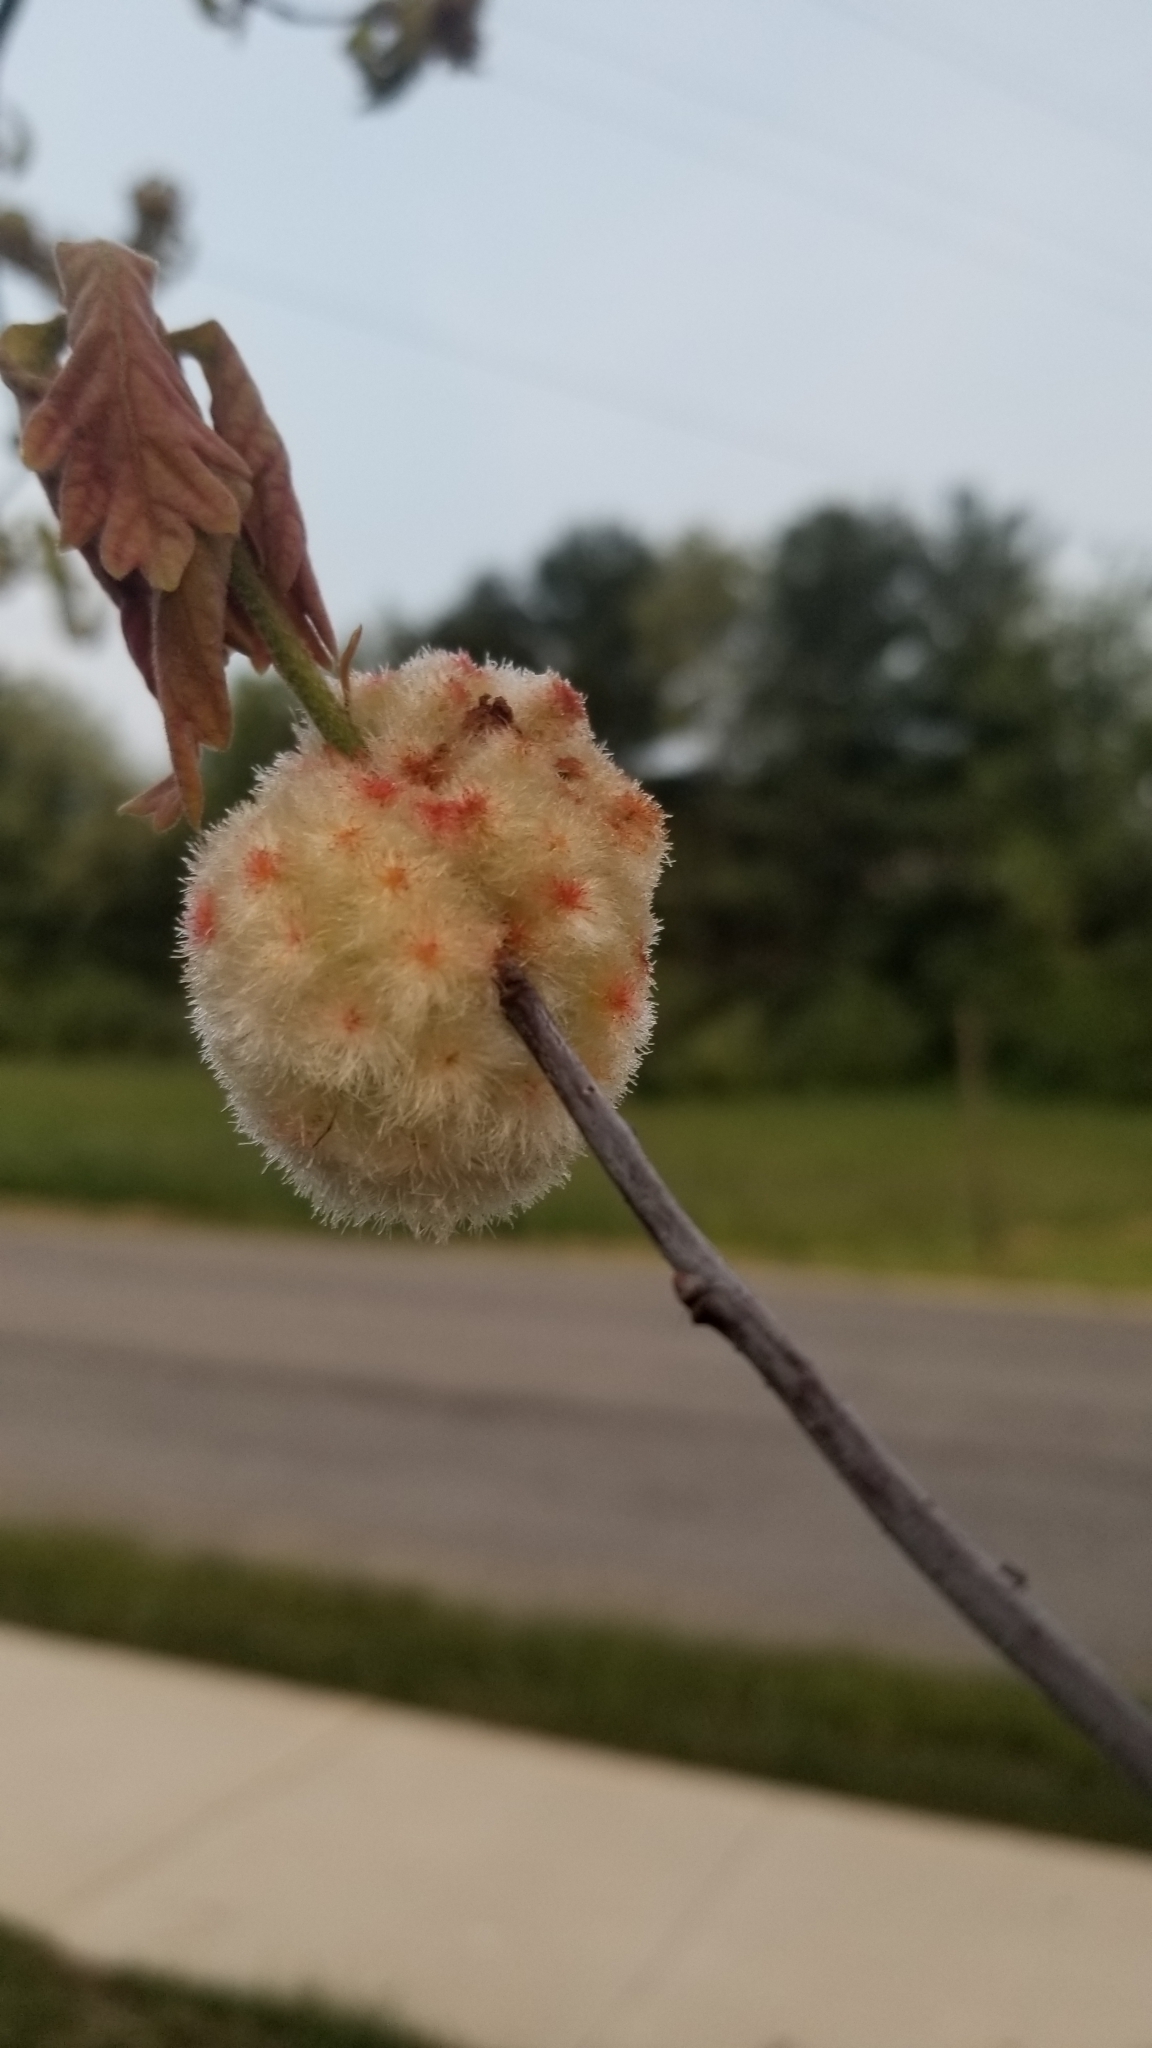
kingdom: Animalia
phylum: Arthropoda
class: Insecta
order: Hymenoptera
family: Cynipidae
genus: Callirhytis
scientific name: Callirhytis
